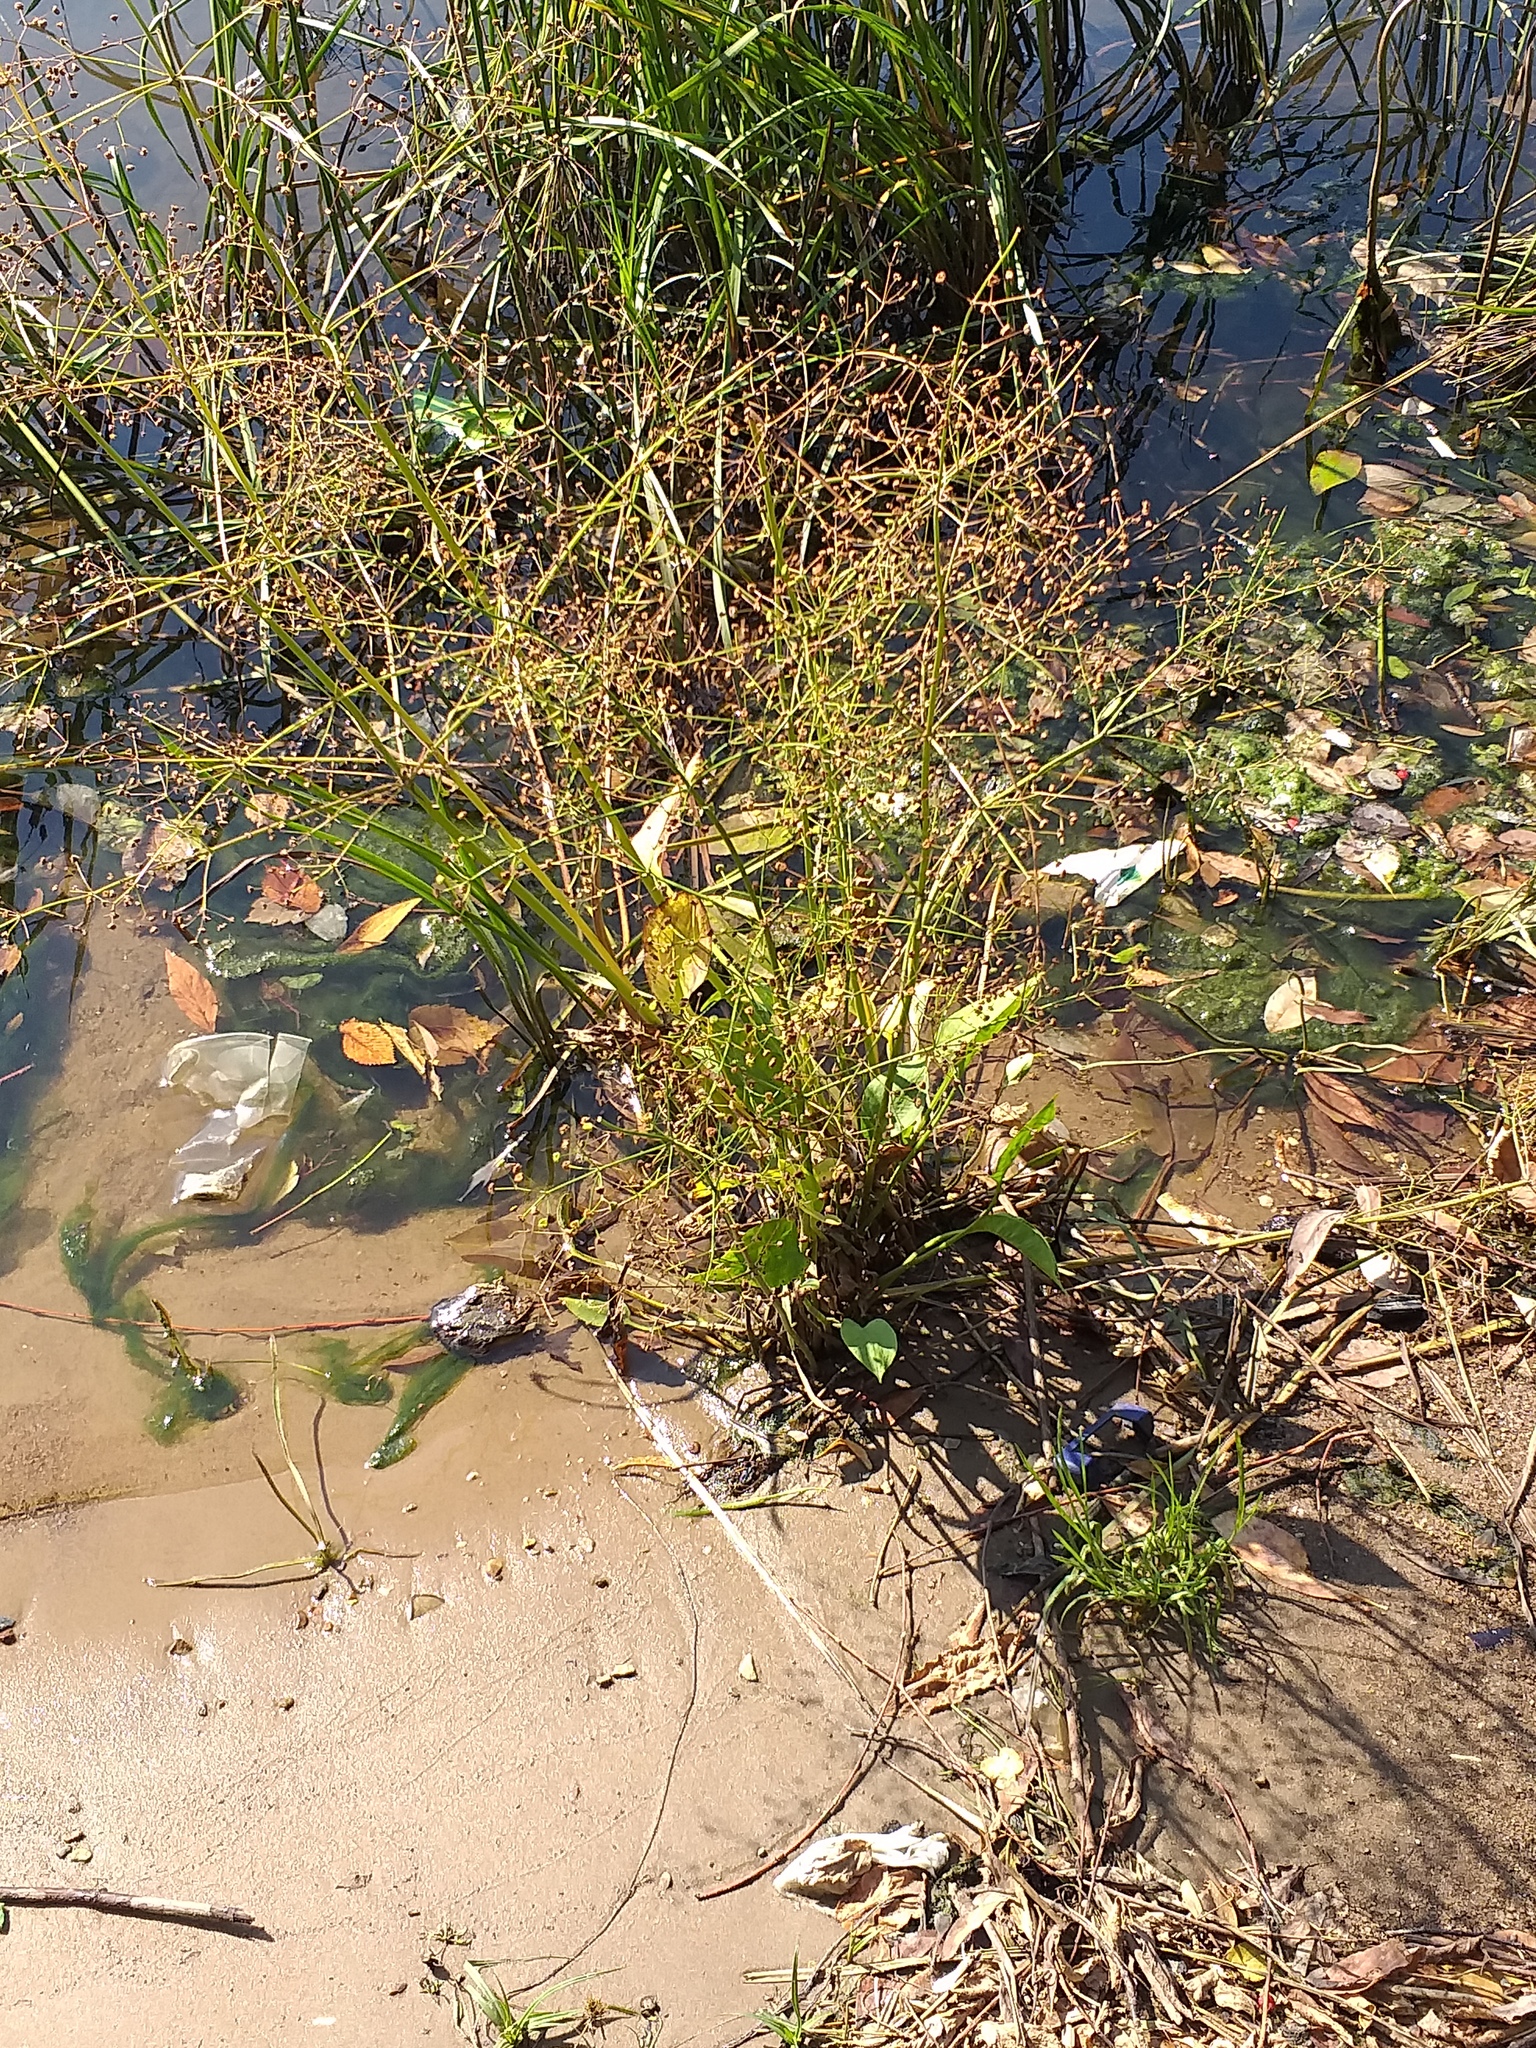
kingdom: Plantae
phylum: Tracheophyta
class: Liliopsida
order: Alismatales
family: Alismataceae
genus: Alisma
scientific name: Alisma plantago-aquatica
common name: Water-plantain
